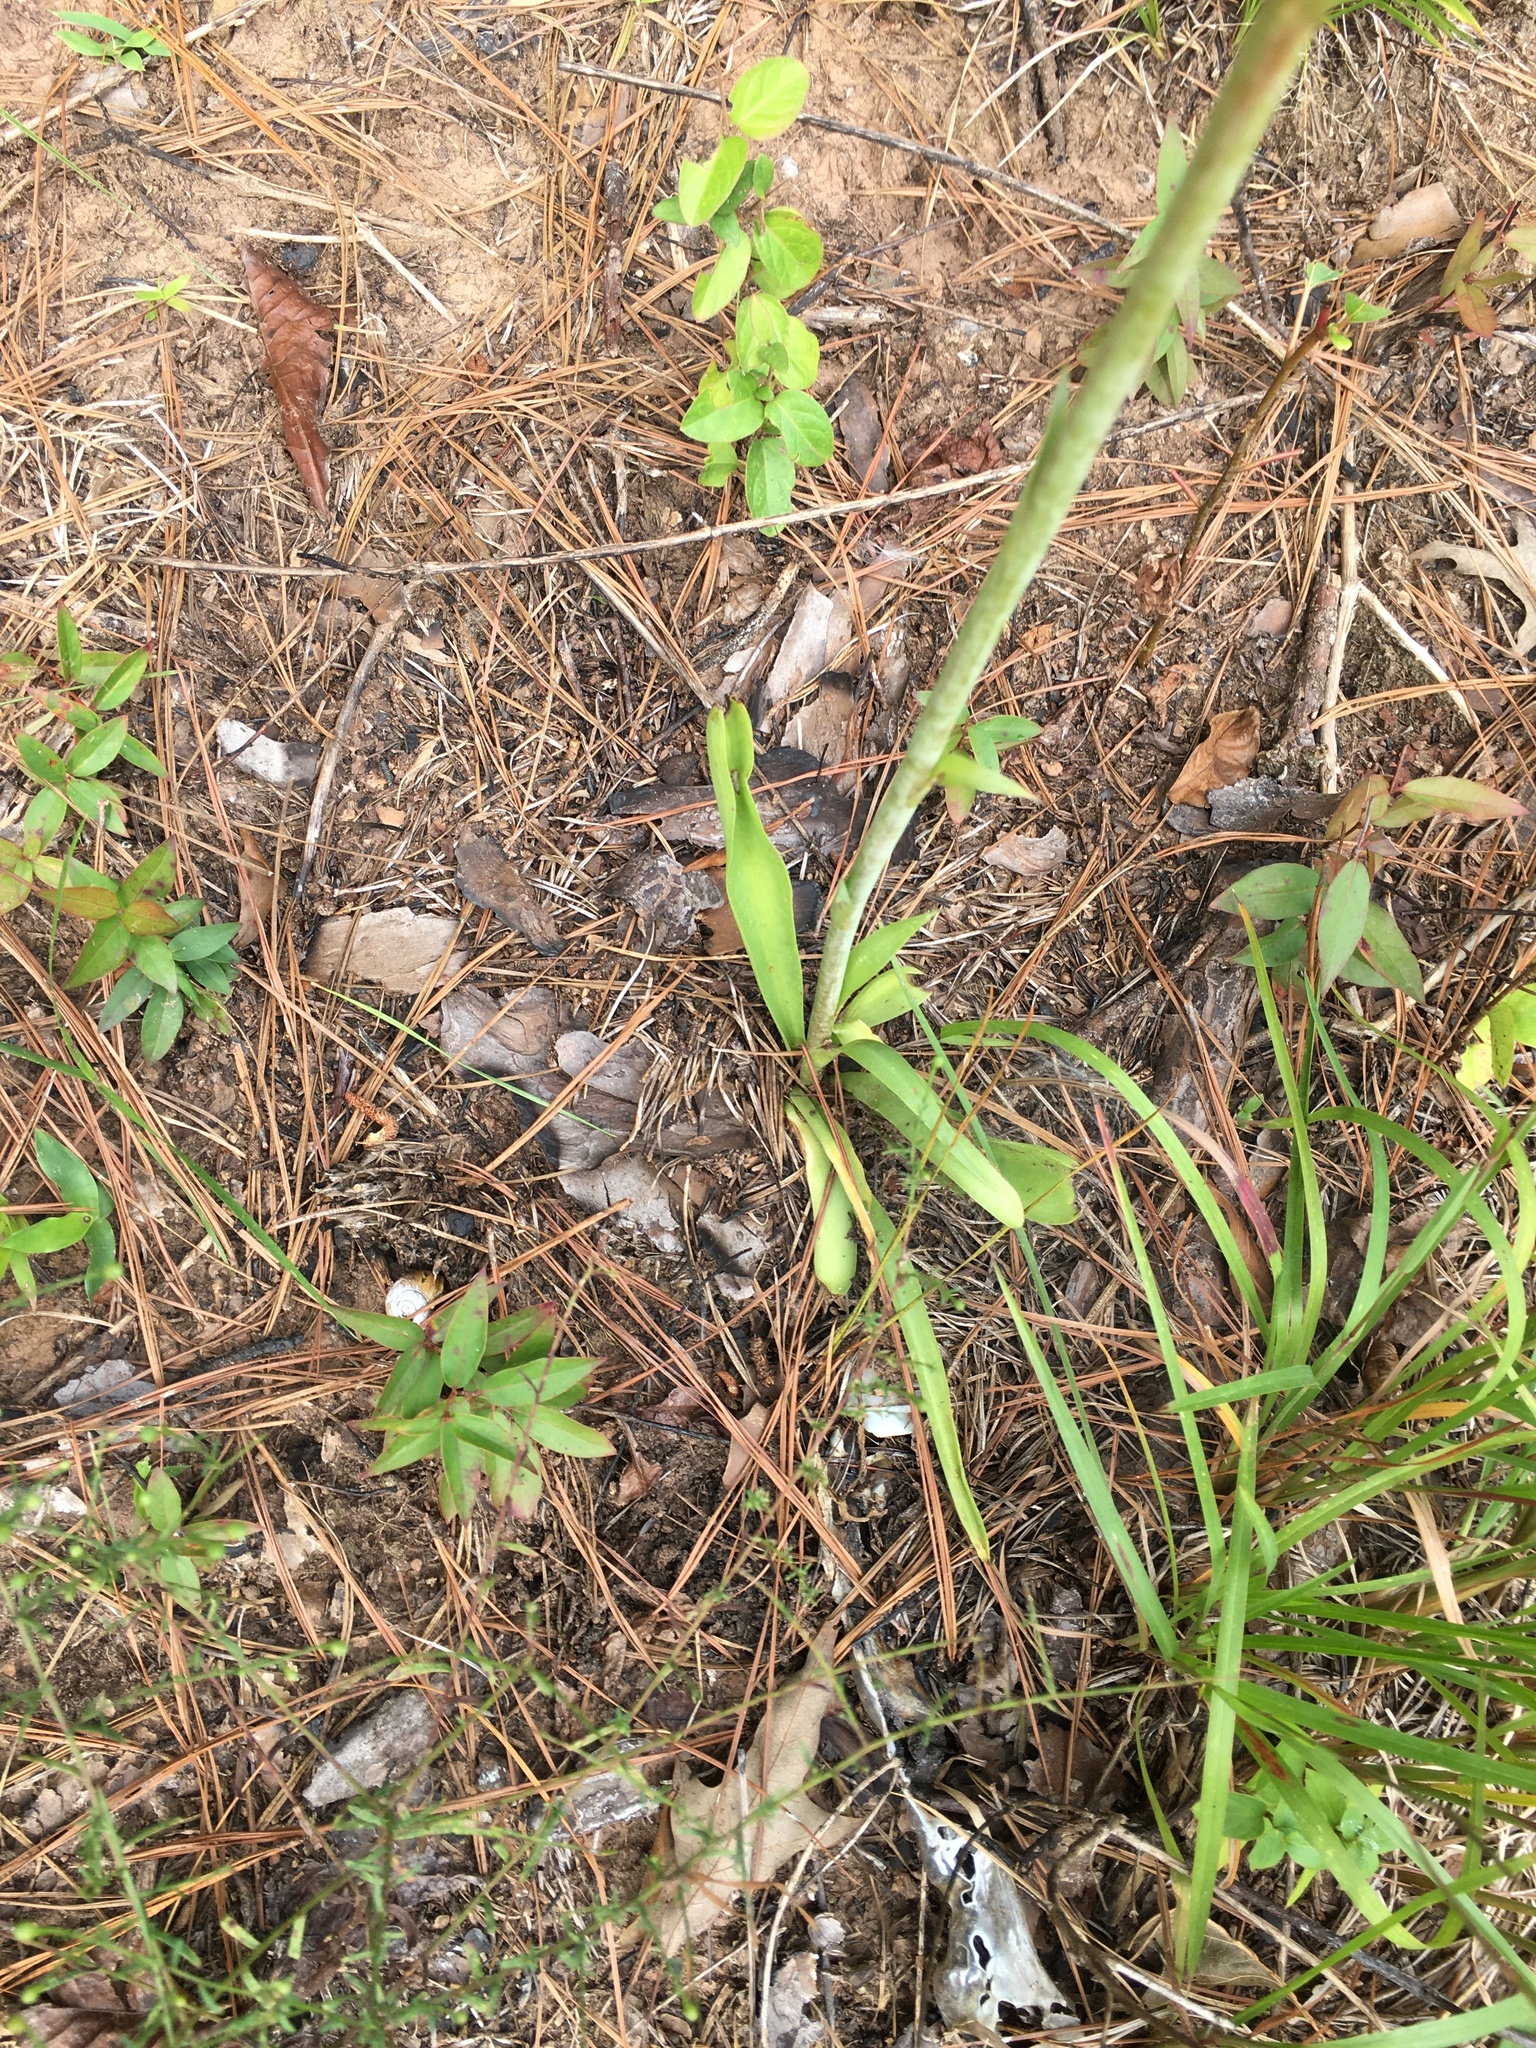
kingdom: Plantae
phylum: Tracheophyta
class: Liliopsida
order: Asparagales
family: Asparagaceae
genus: Agave
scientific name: Agave virginica
